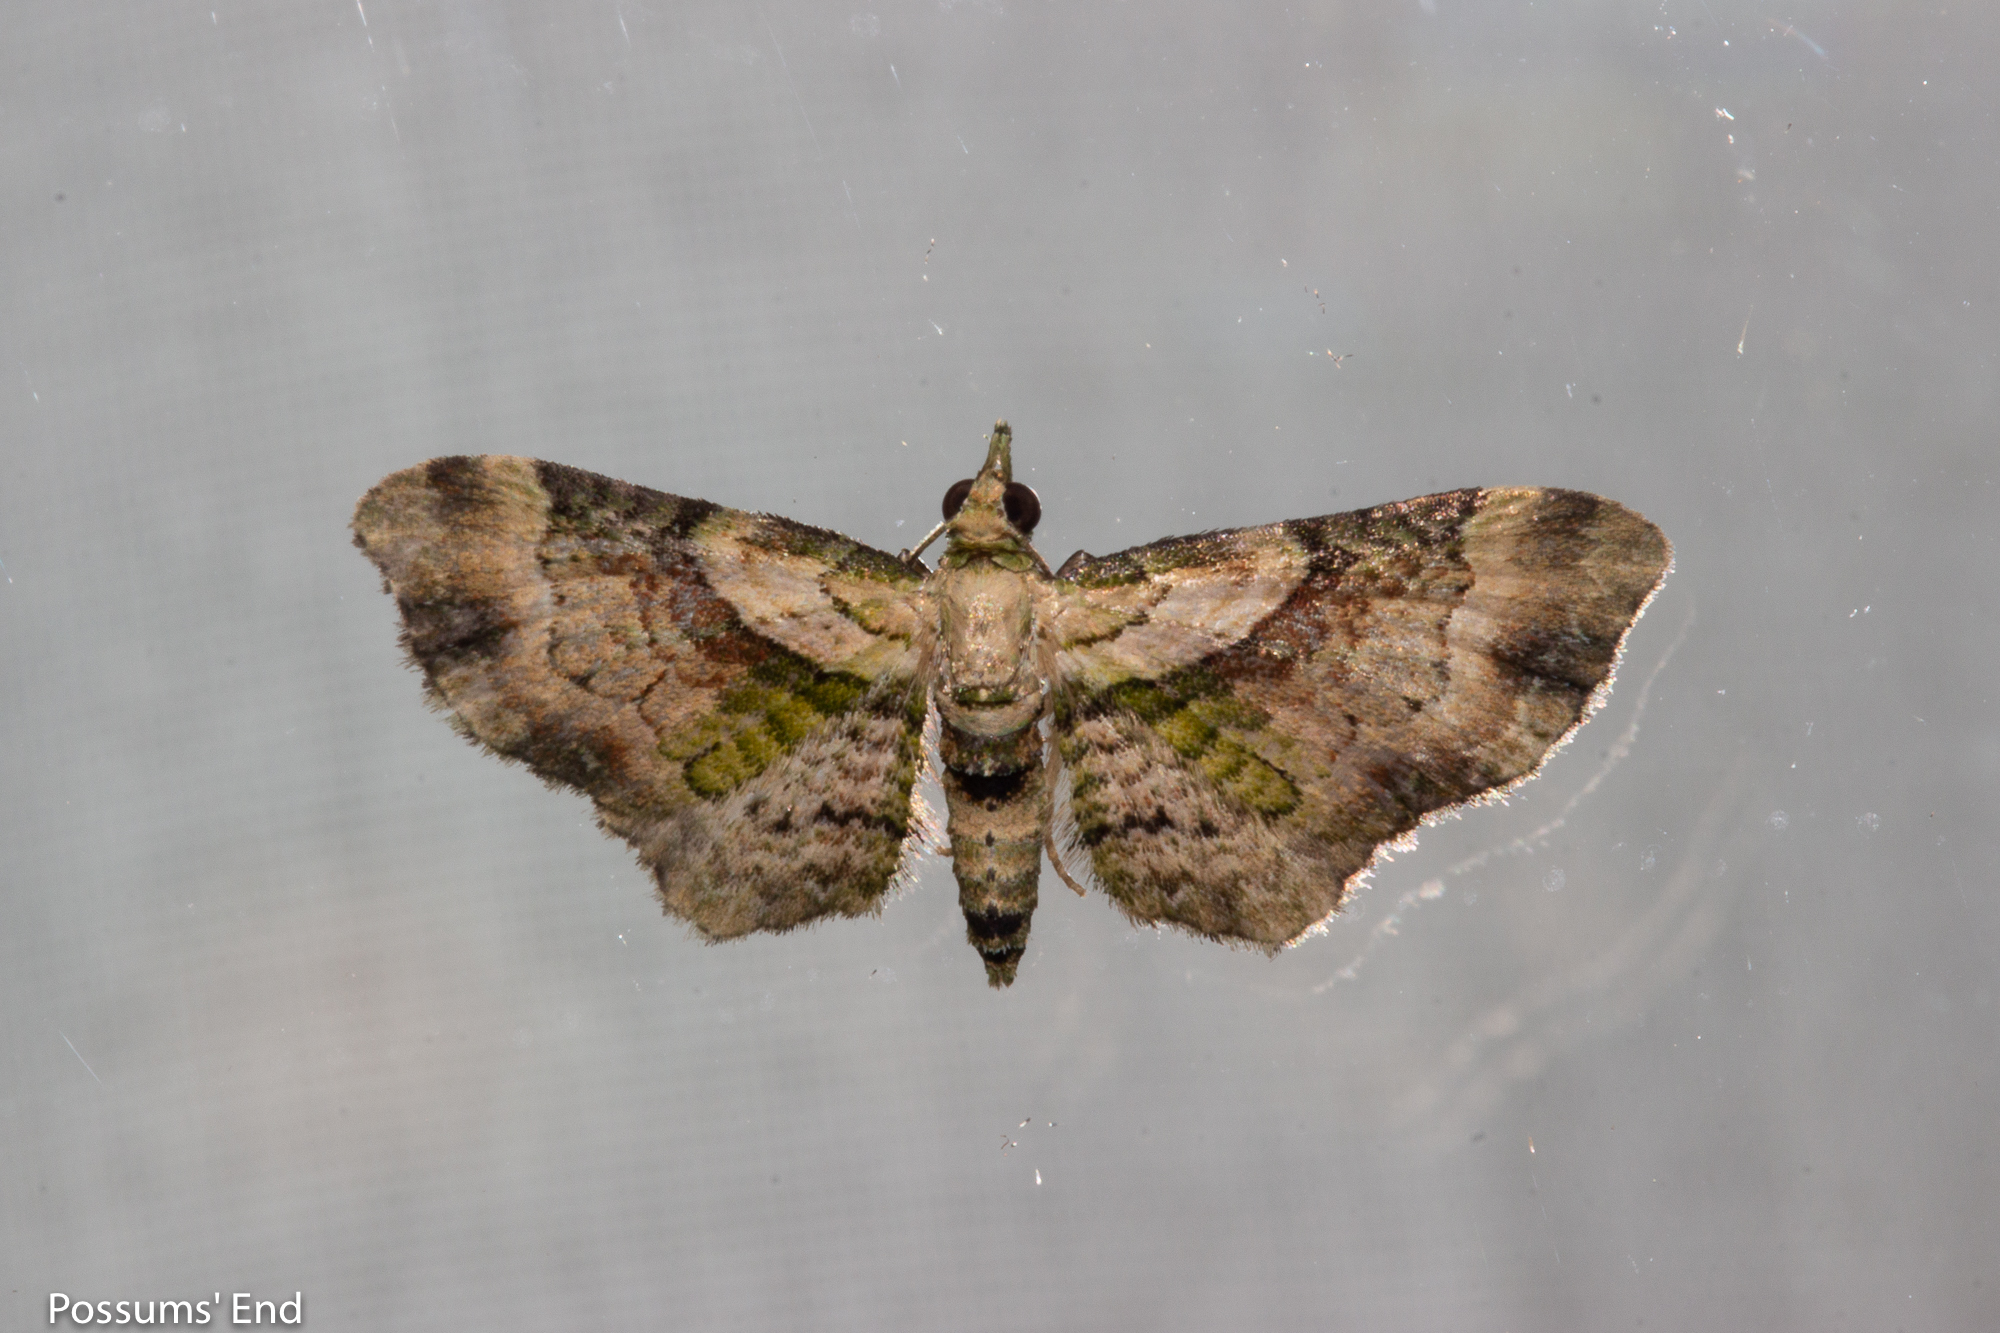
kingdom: Animalia
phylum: Arthropoda
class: Insecta
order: Lepidoptera
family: Geometridae
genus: Chloroclystis
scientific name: Chloroclystis
